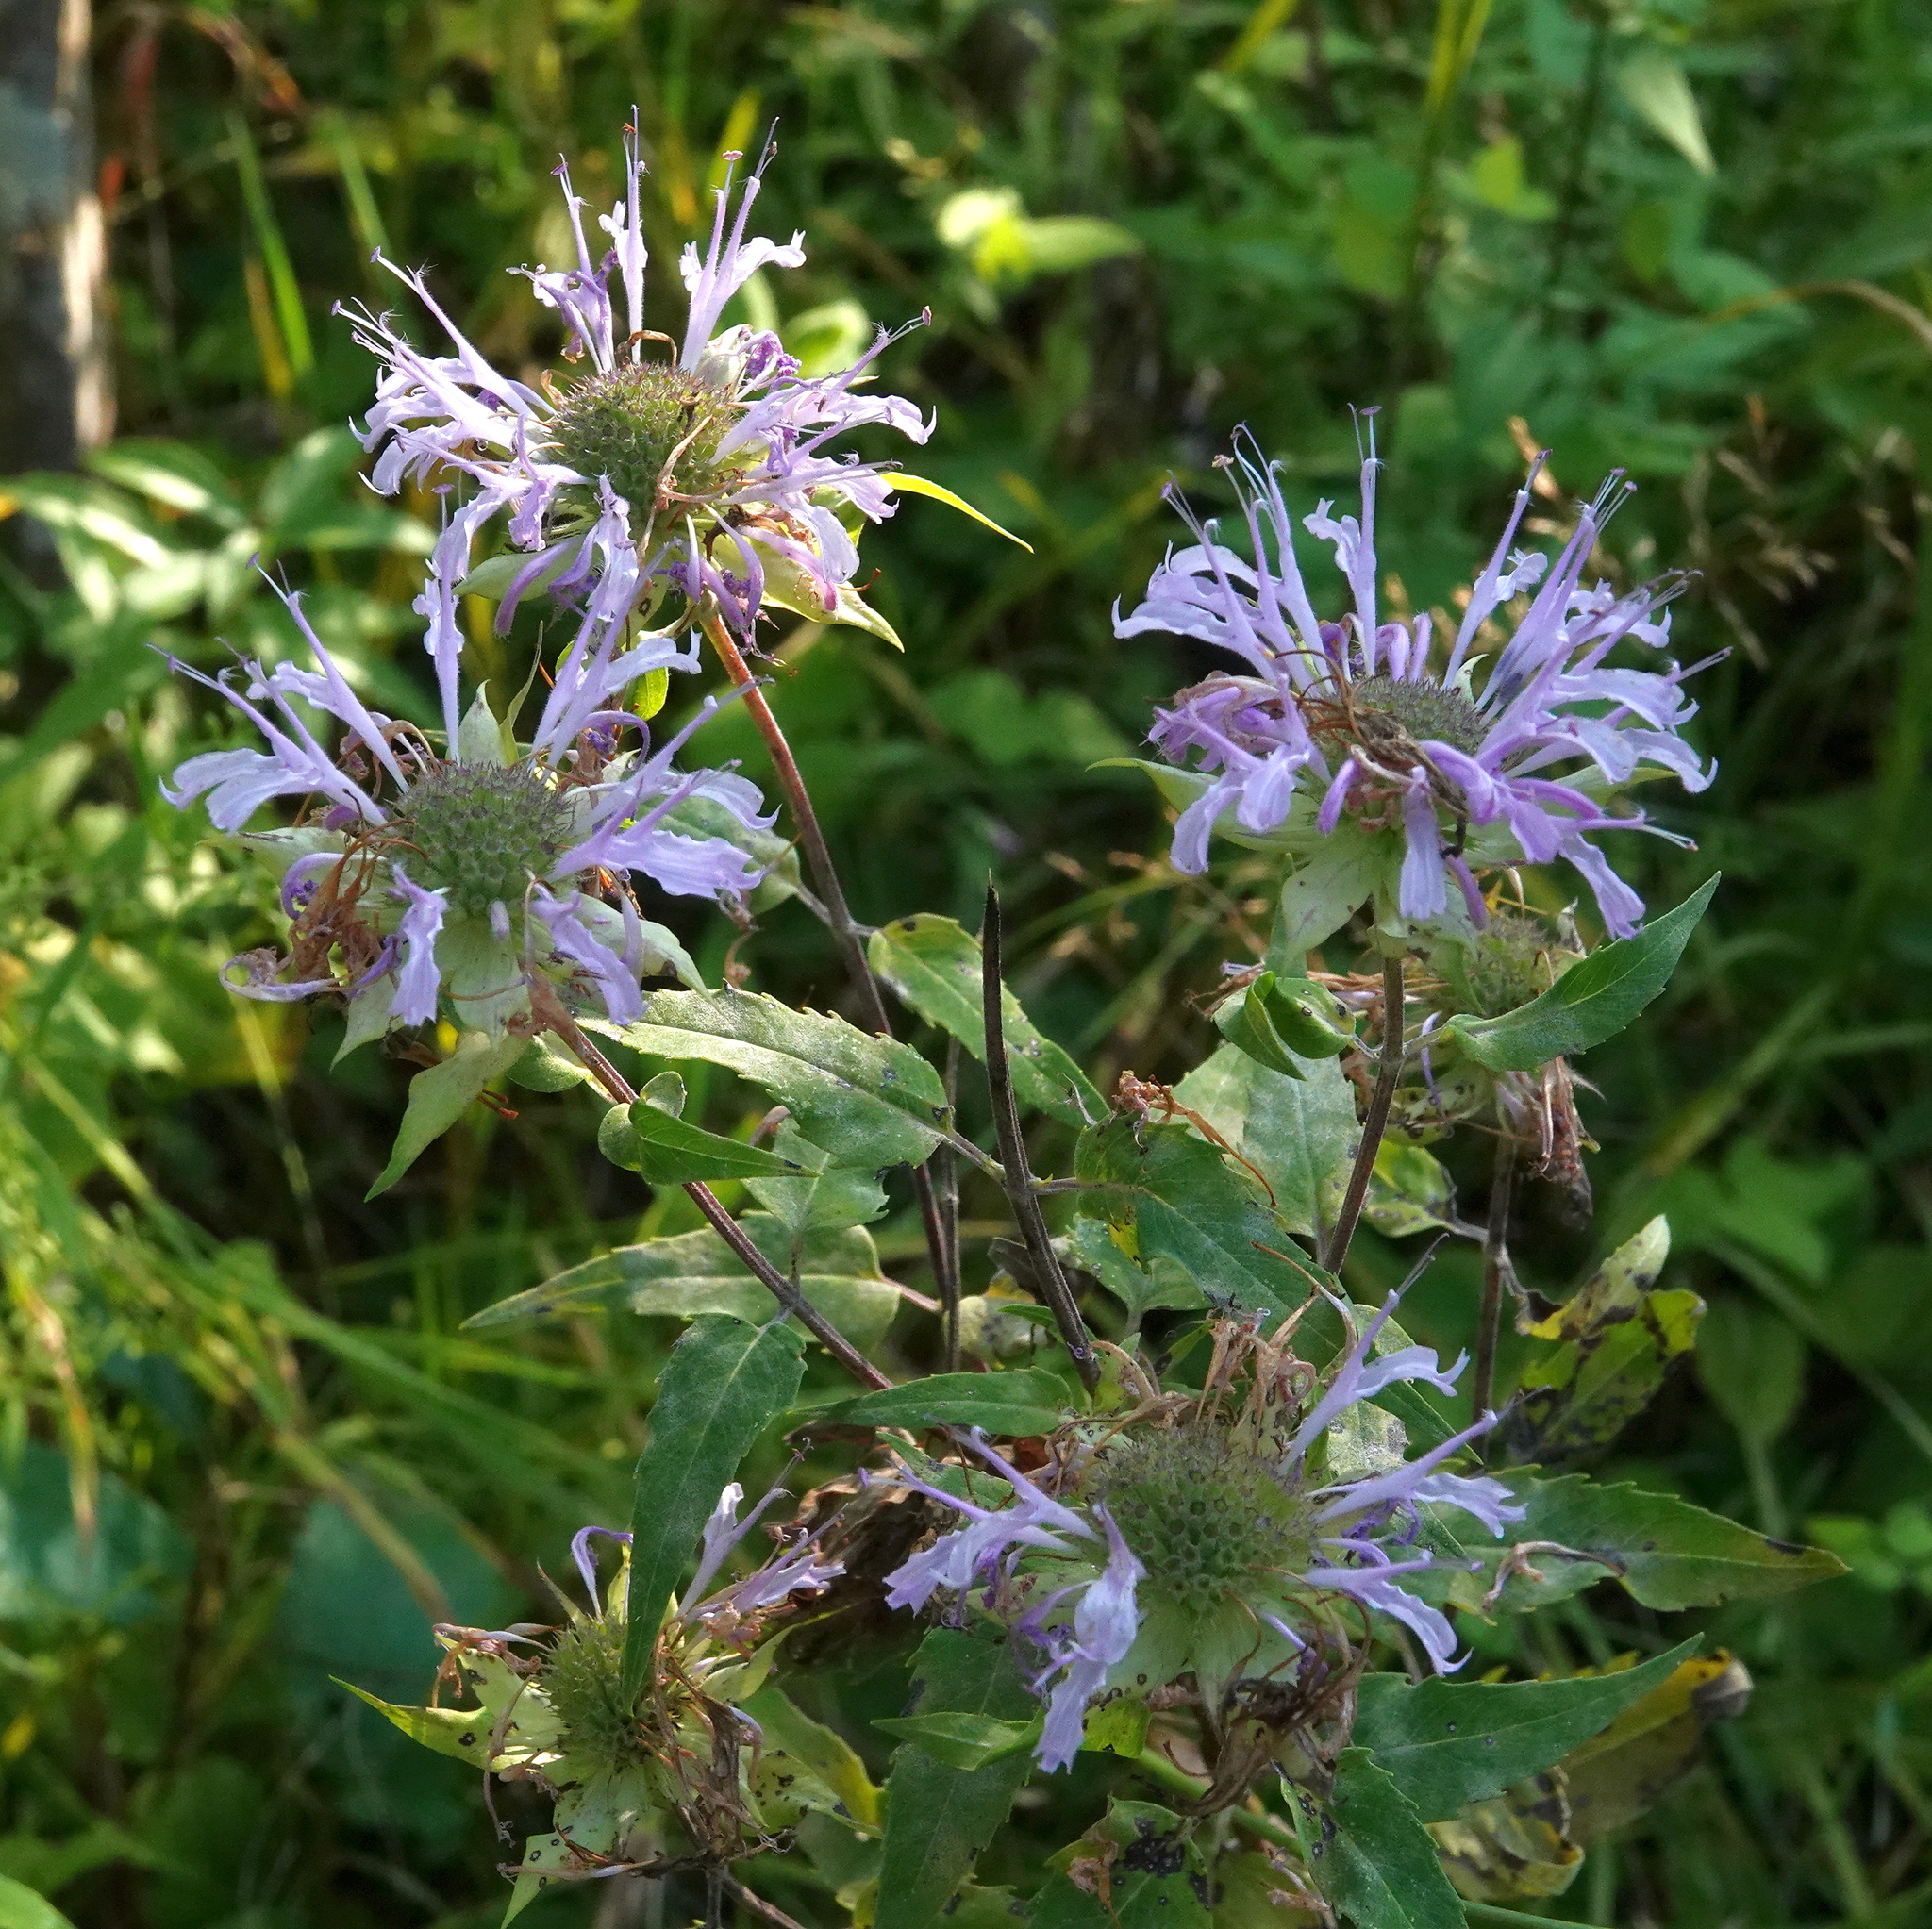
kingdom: Plantae
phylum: Tracheophyta
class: Magnoliopsida
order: Lamiales
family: Lamiaceae
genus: Monarda
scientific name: Monarda fistulosa
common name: Purple beebalm
